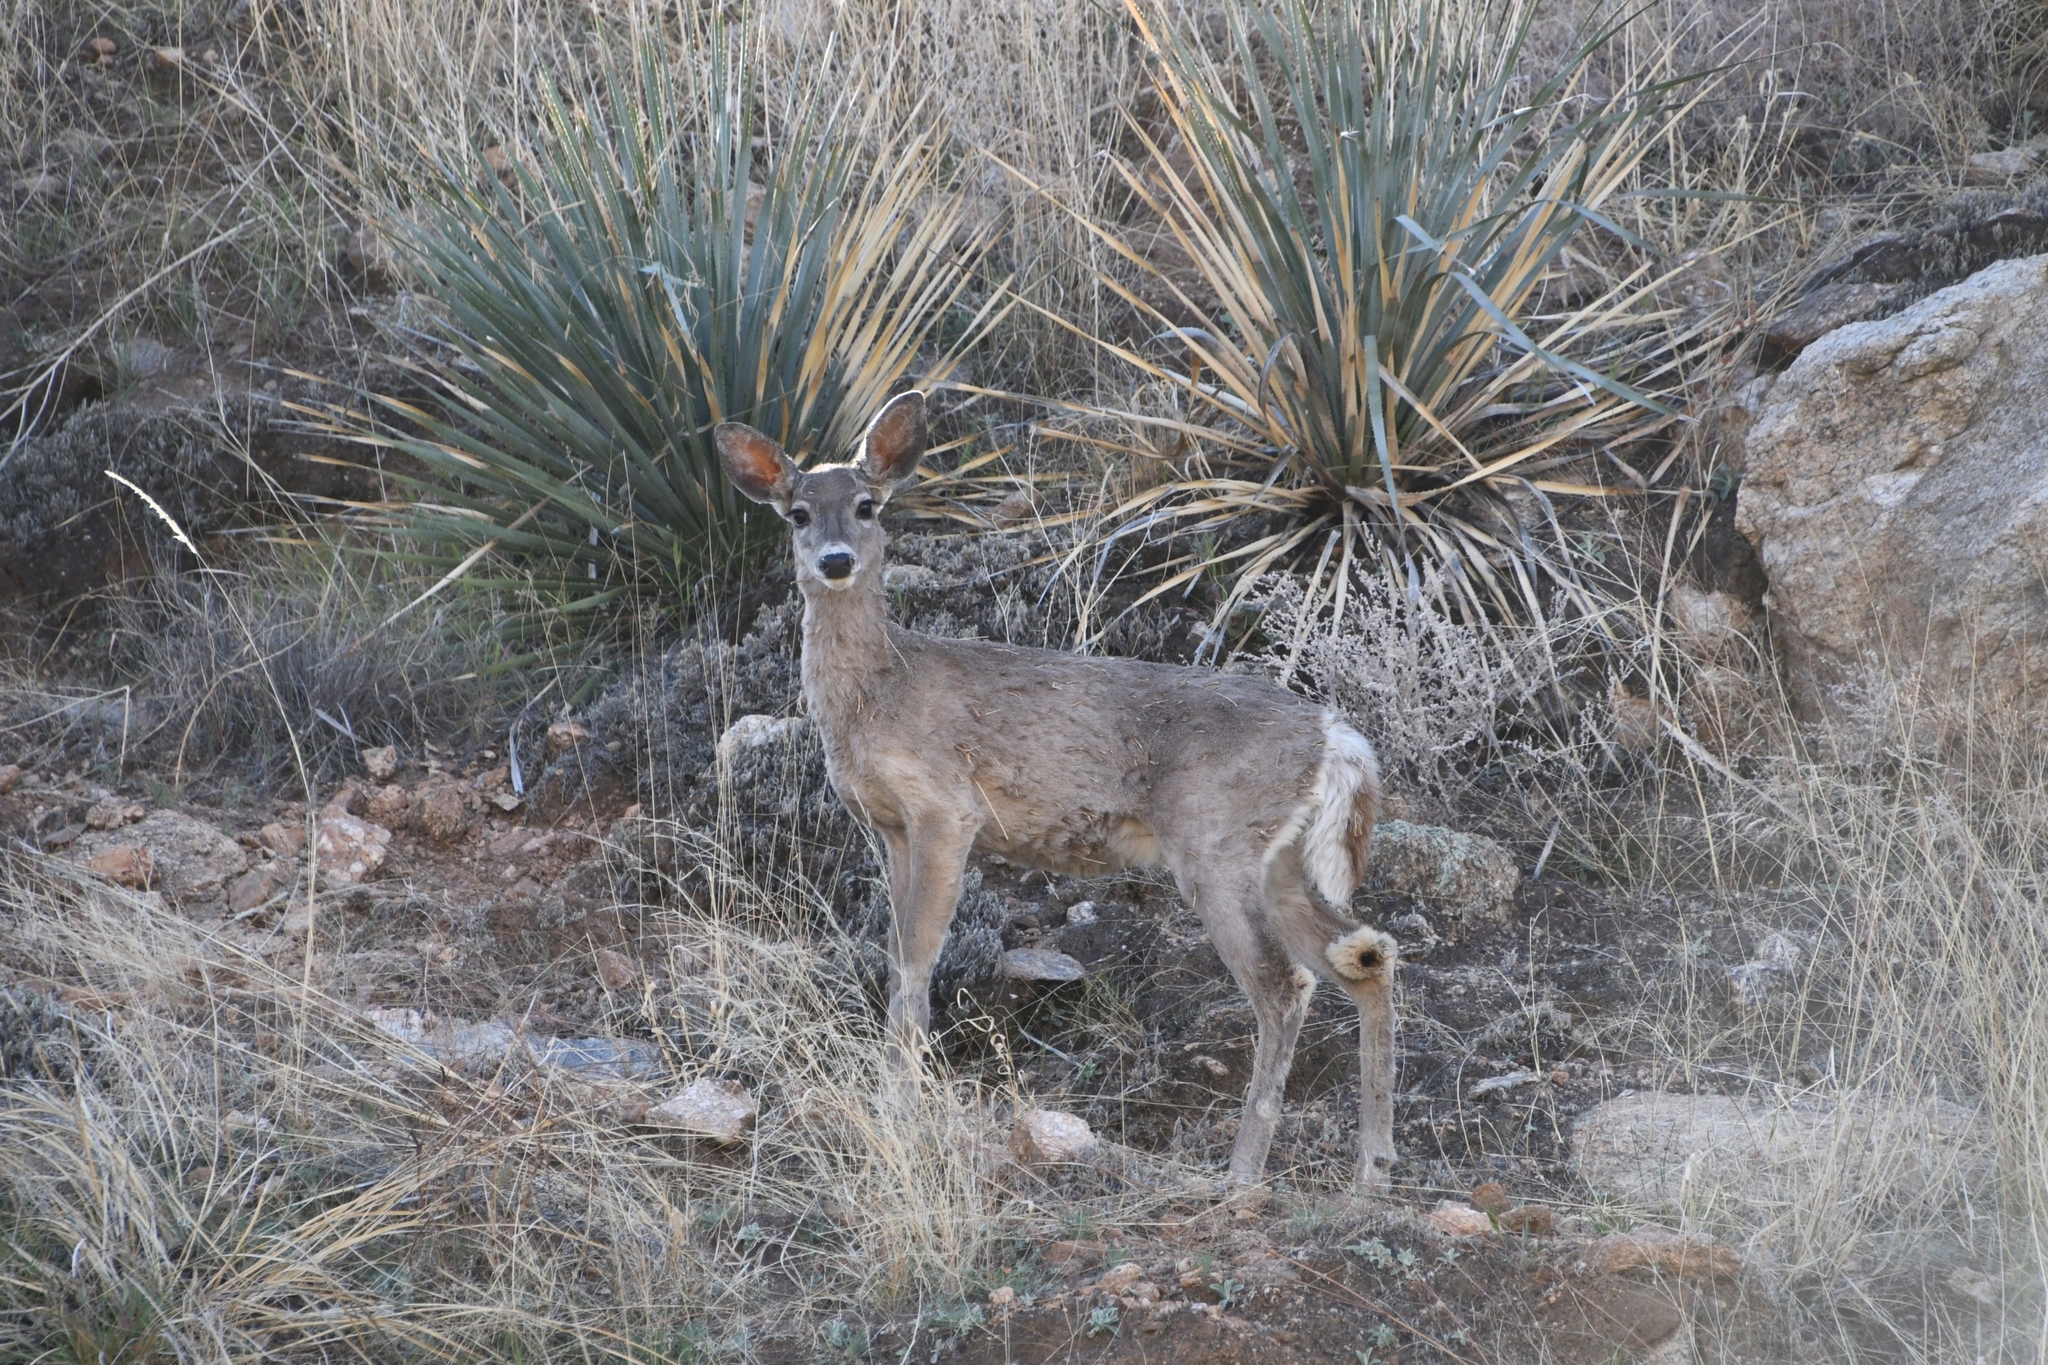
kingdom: Animalia
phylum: Chordata
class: Mammalia
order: Artiodactyla
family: Cervidae
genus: Odocoileus
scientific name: Odocoileus virginianus
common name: White-tailed deer
